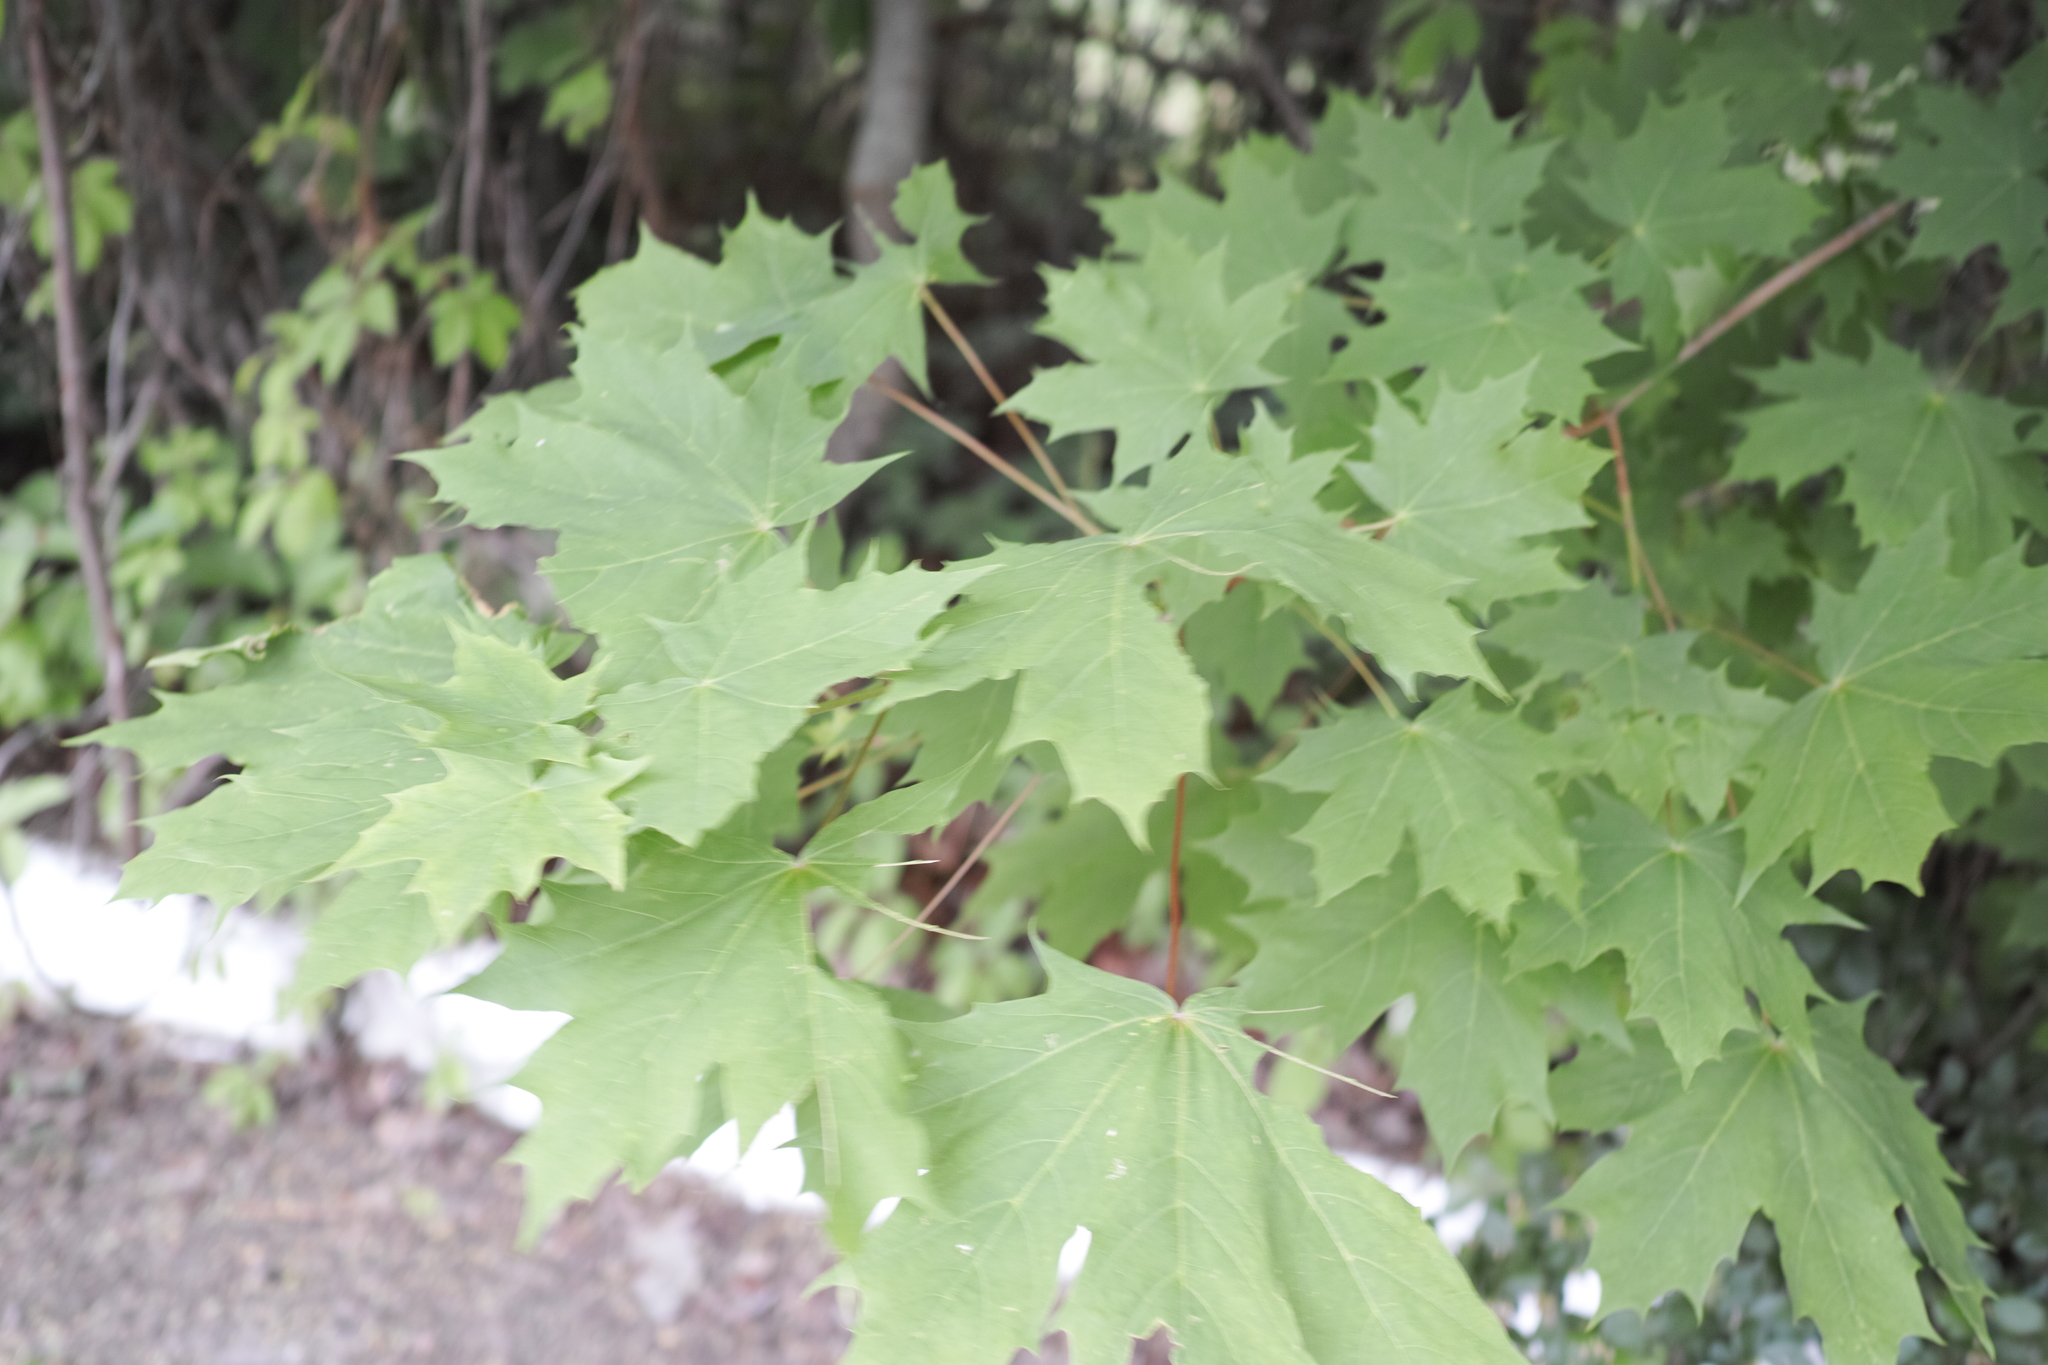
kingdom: Plantae
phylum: Tracheophyta
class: Magnoliopsida
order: Sapindales
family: Sapindaceae
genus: Acer
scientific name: Acer platanoides
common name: Norway maple
